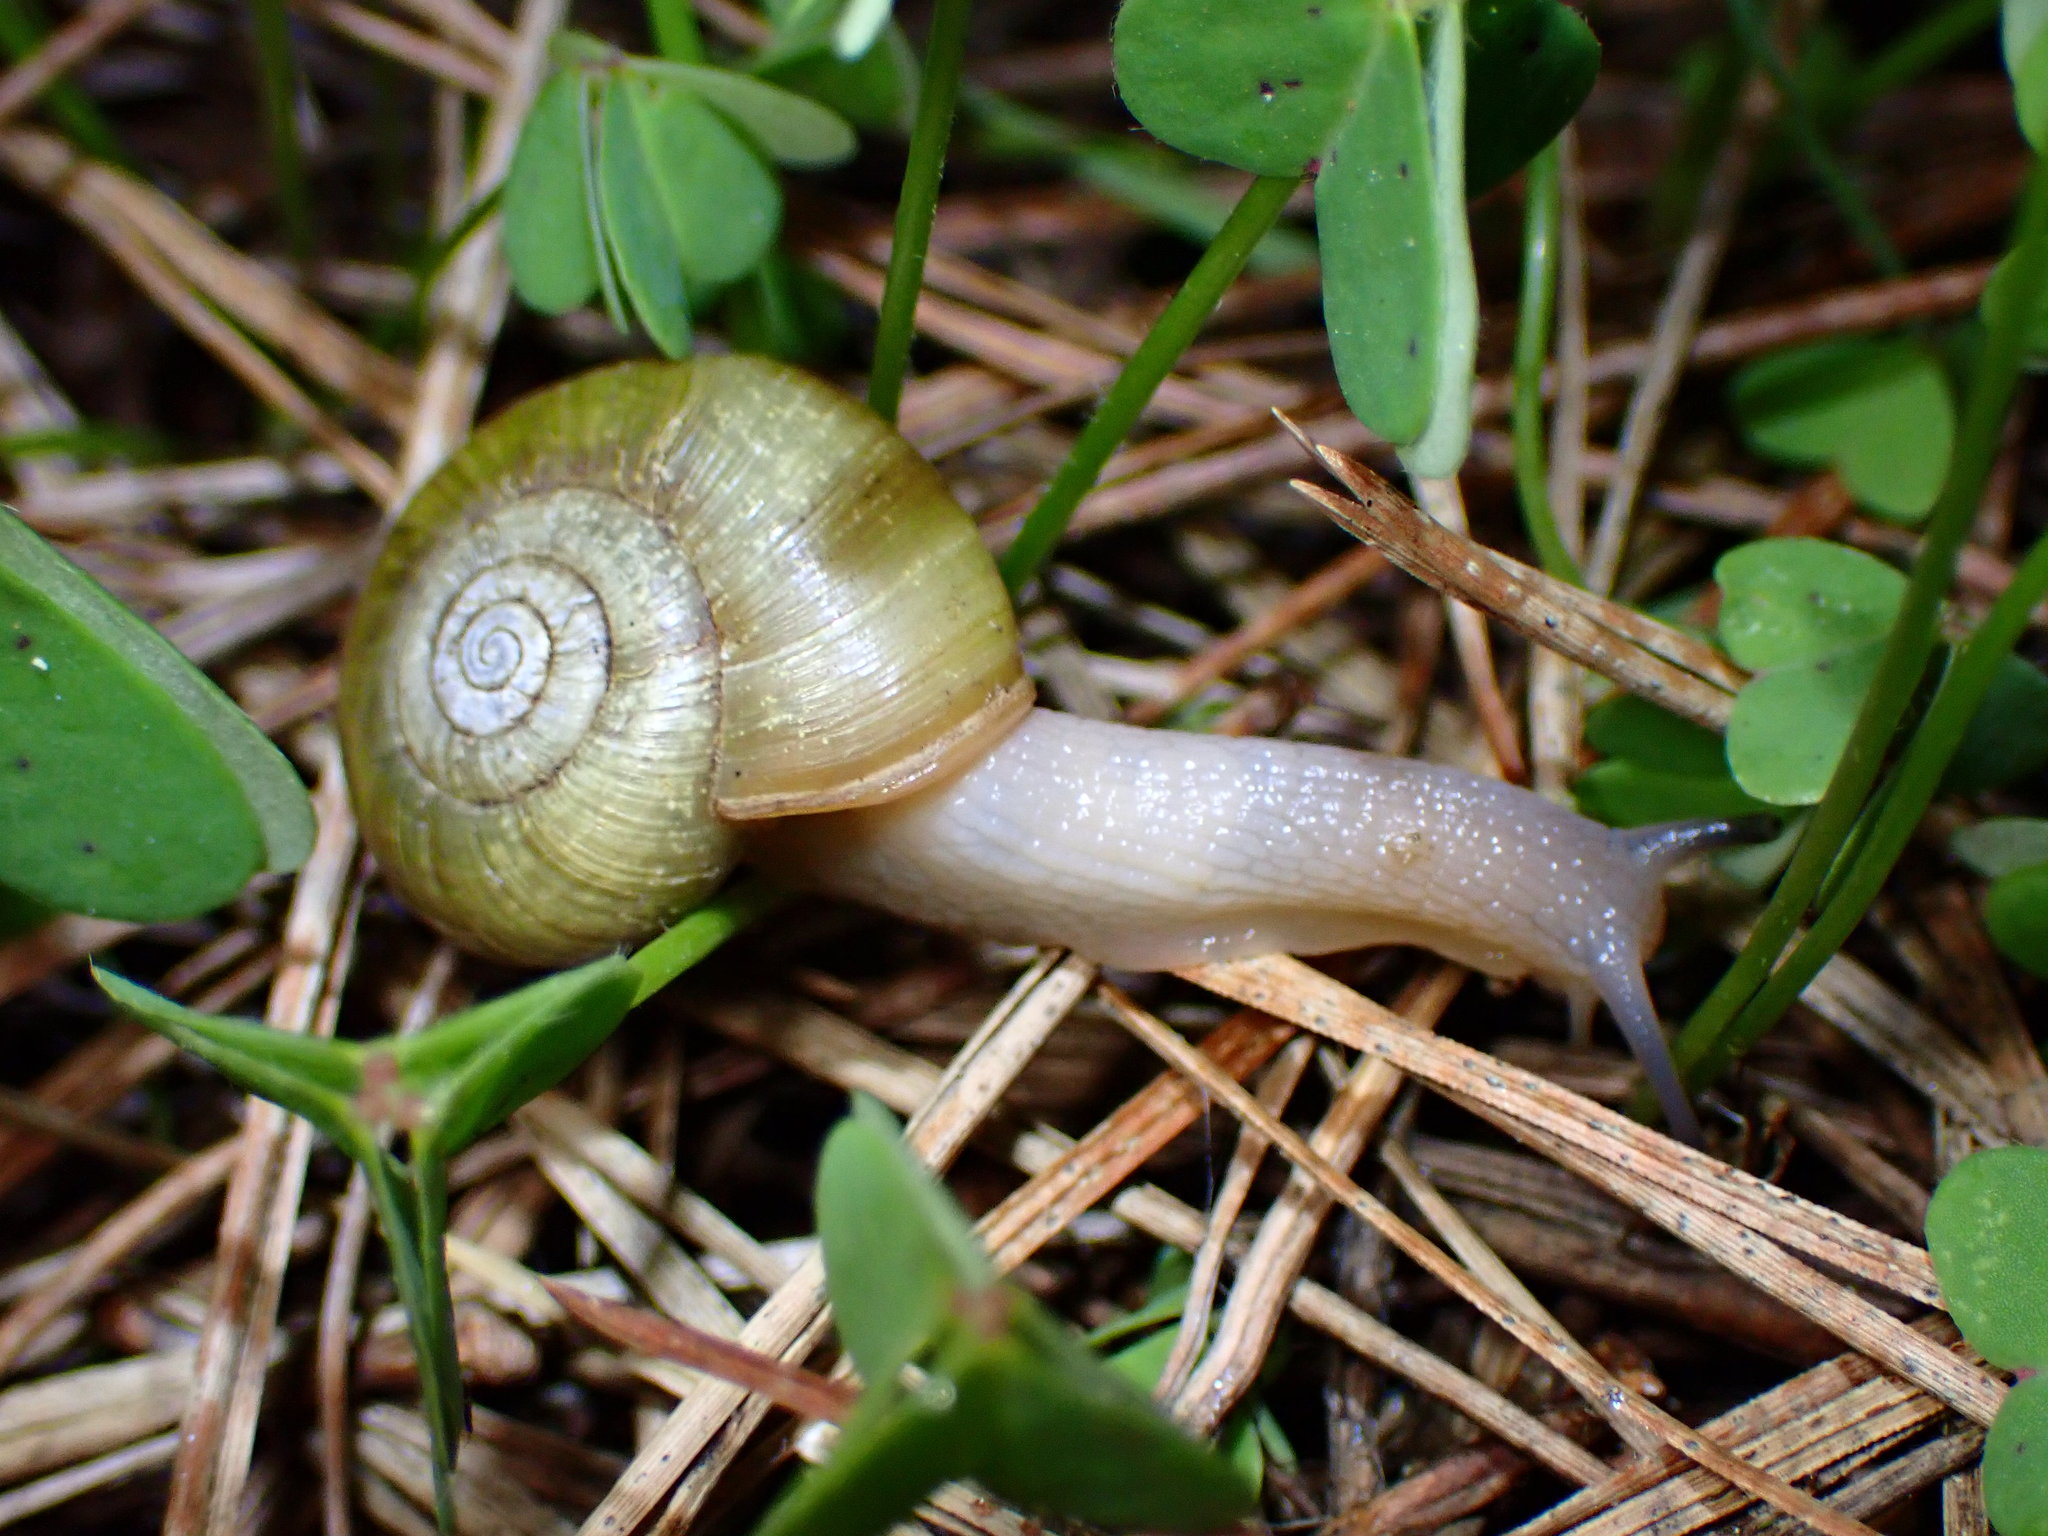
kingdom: Animalia
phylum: Mollusca
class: Gastropoda
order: Stylommatophora
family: Haplotrematidae
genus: Haplotrema
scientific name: Haplotrema minimum
